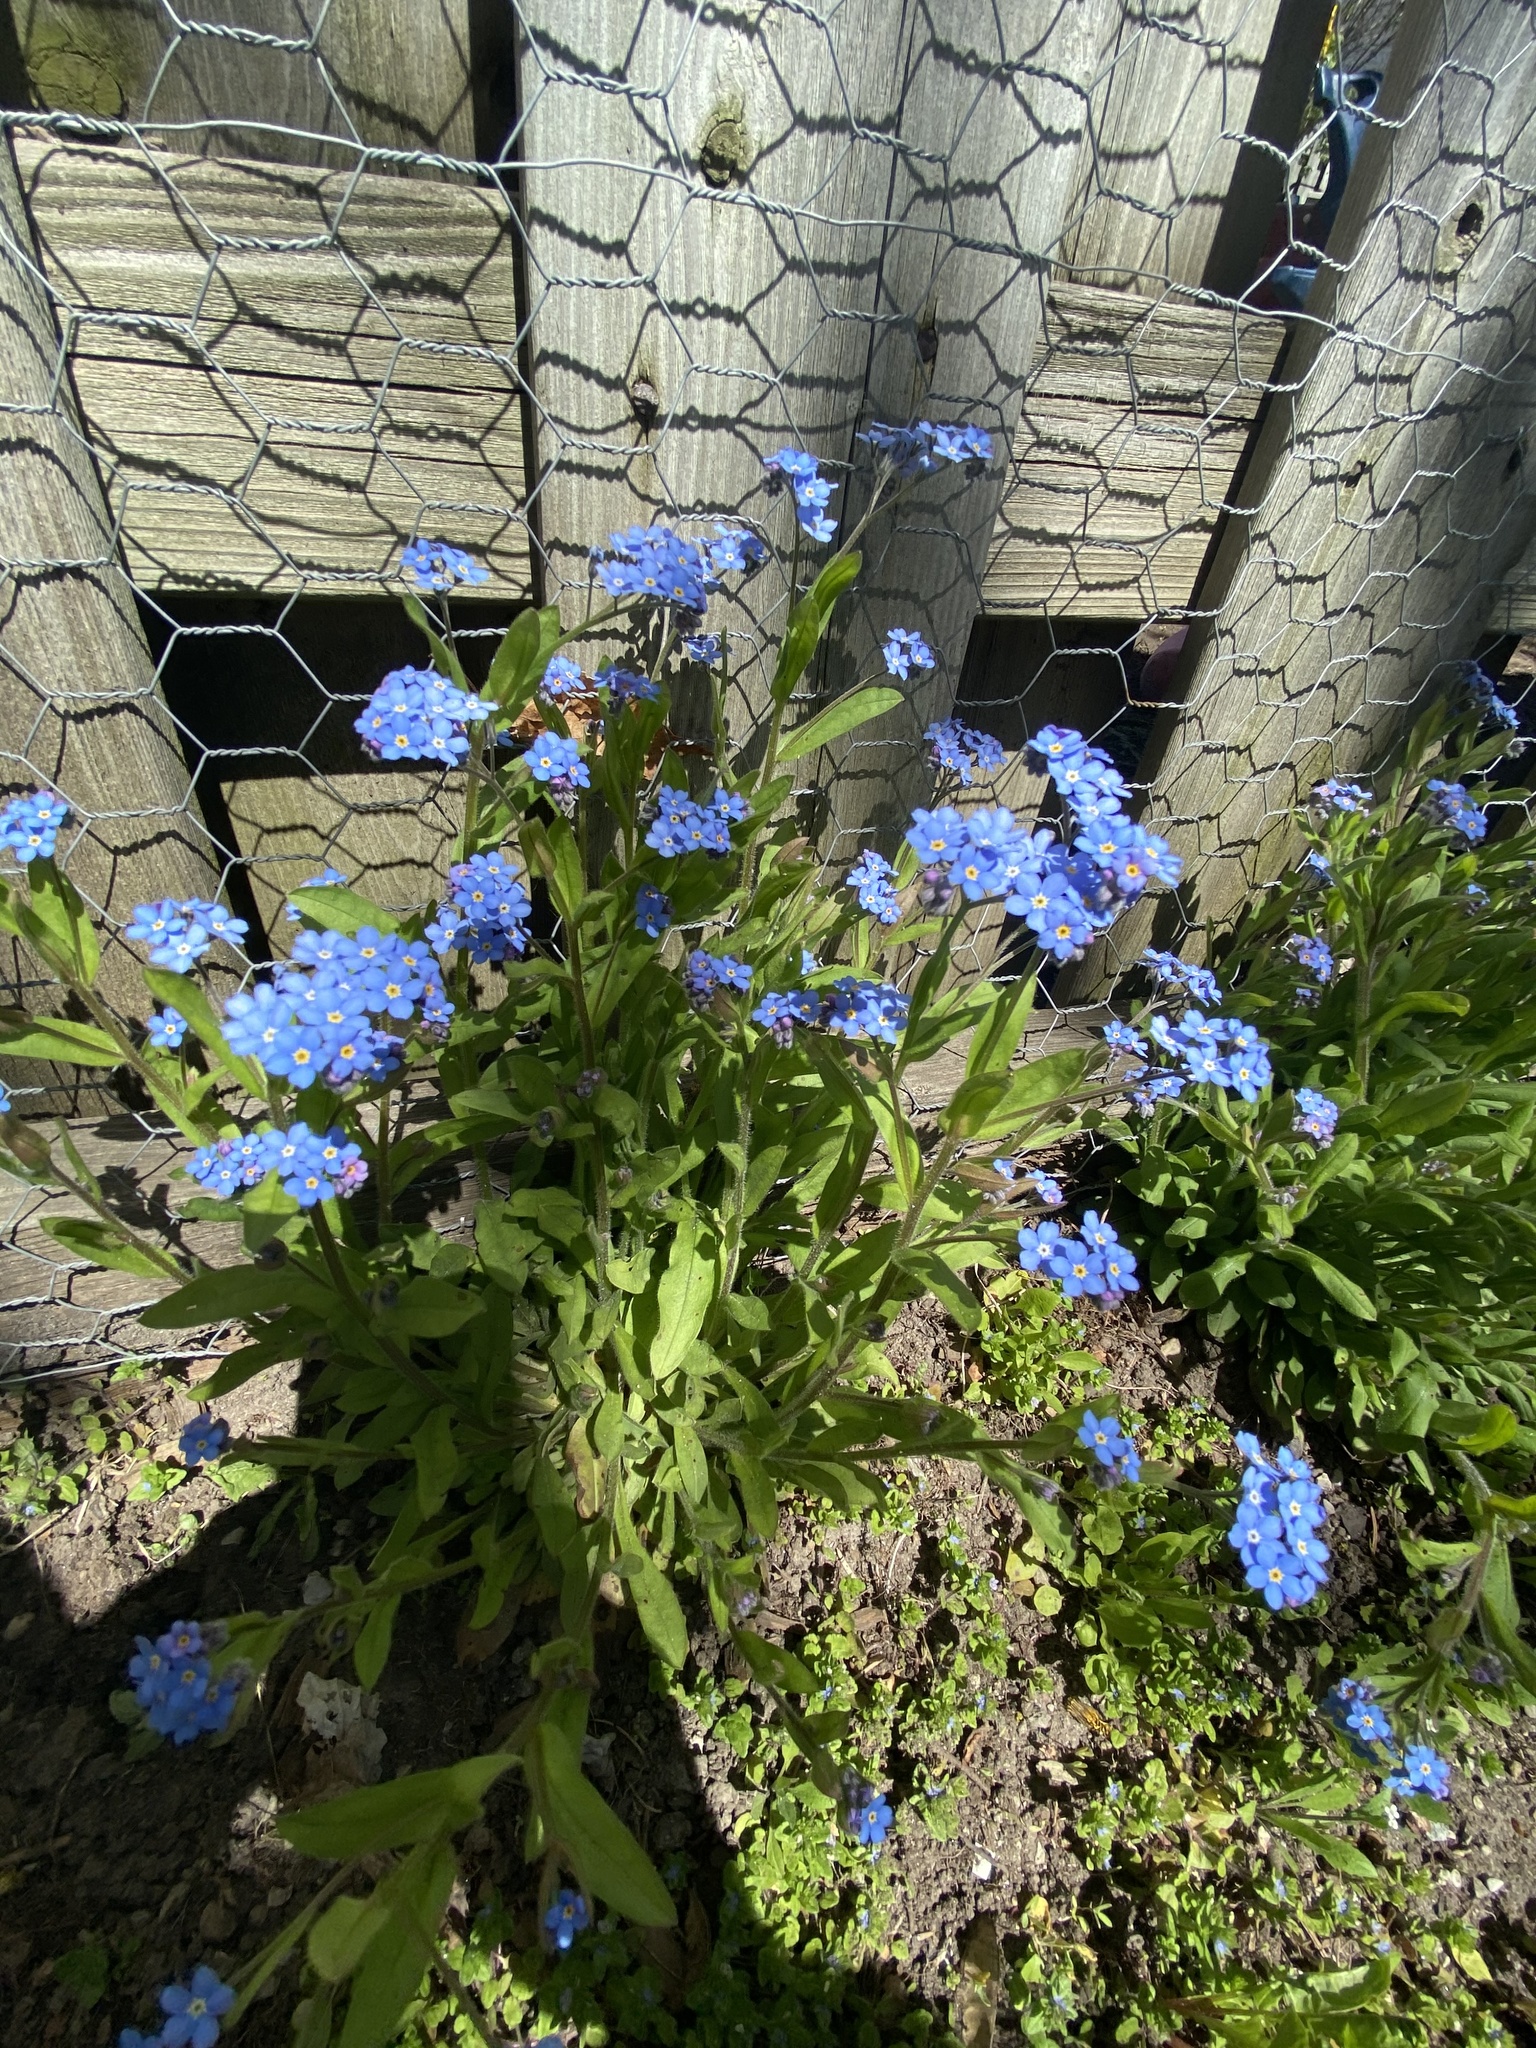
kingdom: Plantae
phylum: Tracheophyta
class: Magnoliopsida
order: Boraginales
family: Boraginaceae
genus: Myosotis
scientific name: Myosotis sylvatica
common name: Wood forget-me-not
